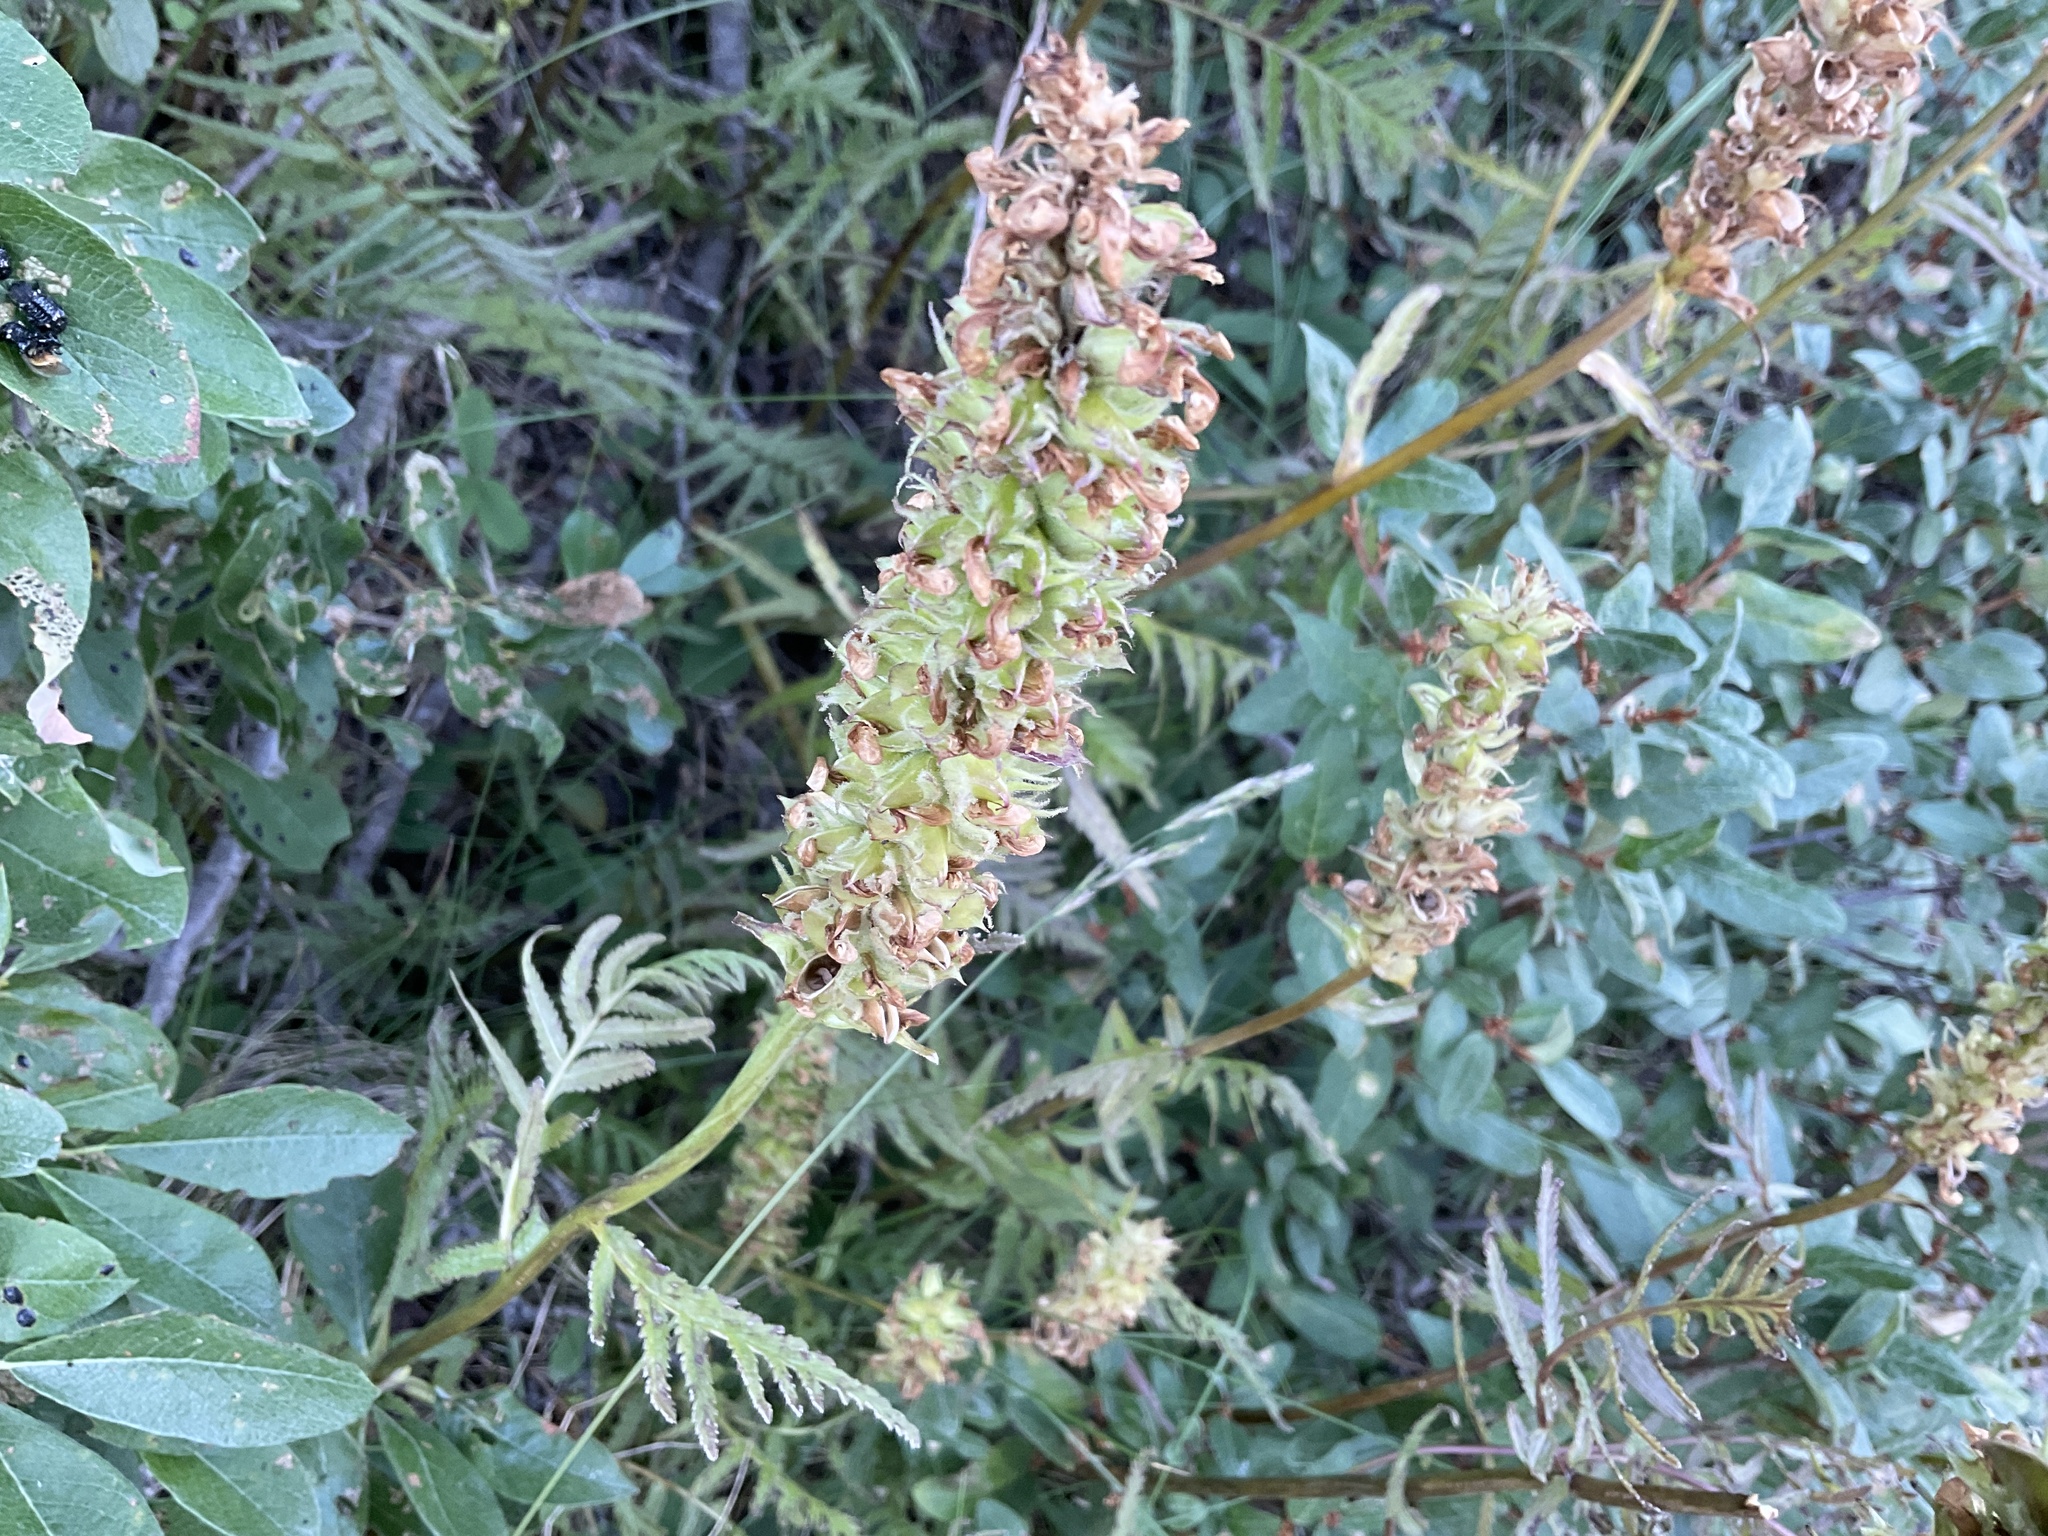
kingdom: Plantae
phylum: Tracheophyta
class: Magnoliopsida
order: Lamiales
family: Orobanchaceae
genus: Pedicularis
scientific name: Pedicularis bracteosa
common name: Bracted lousewort
